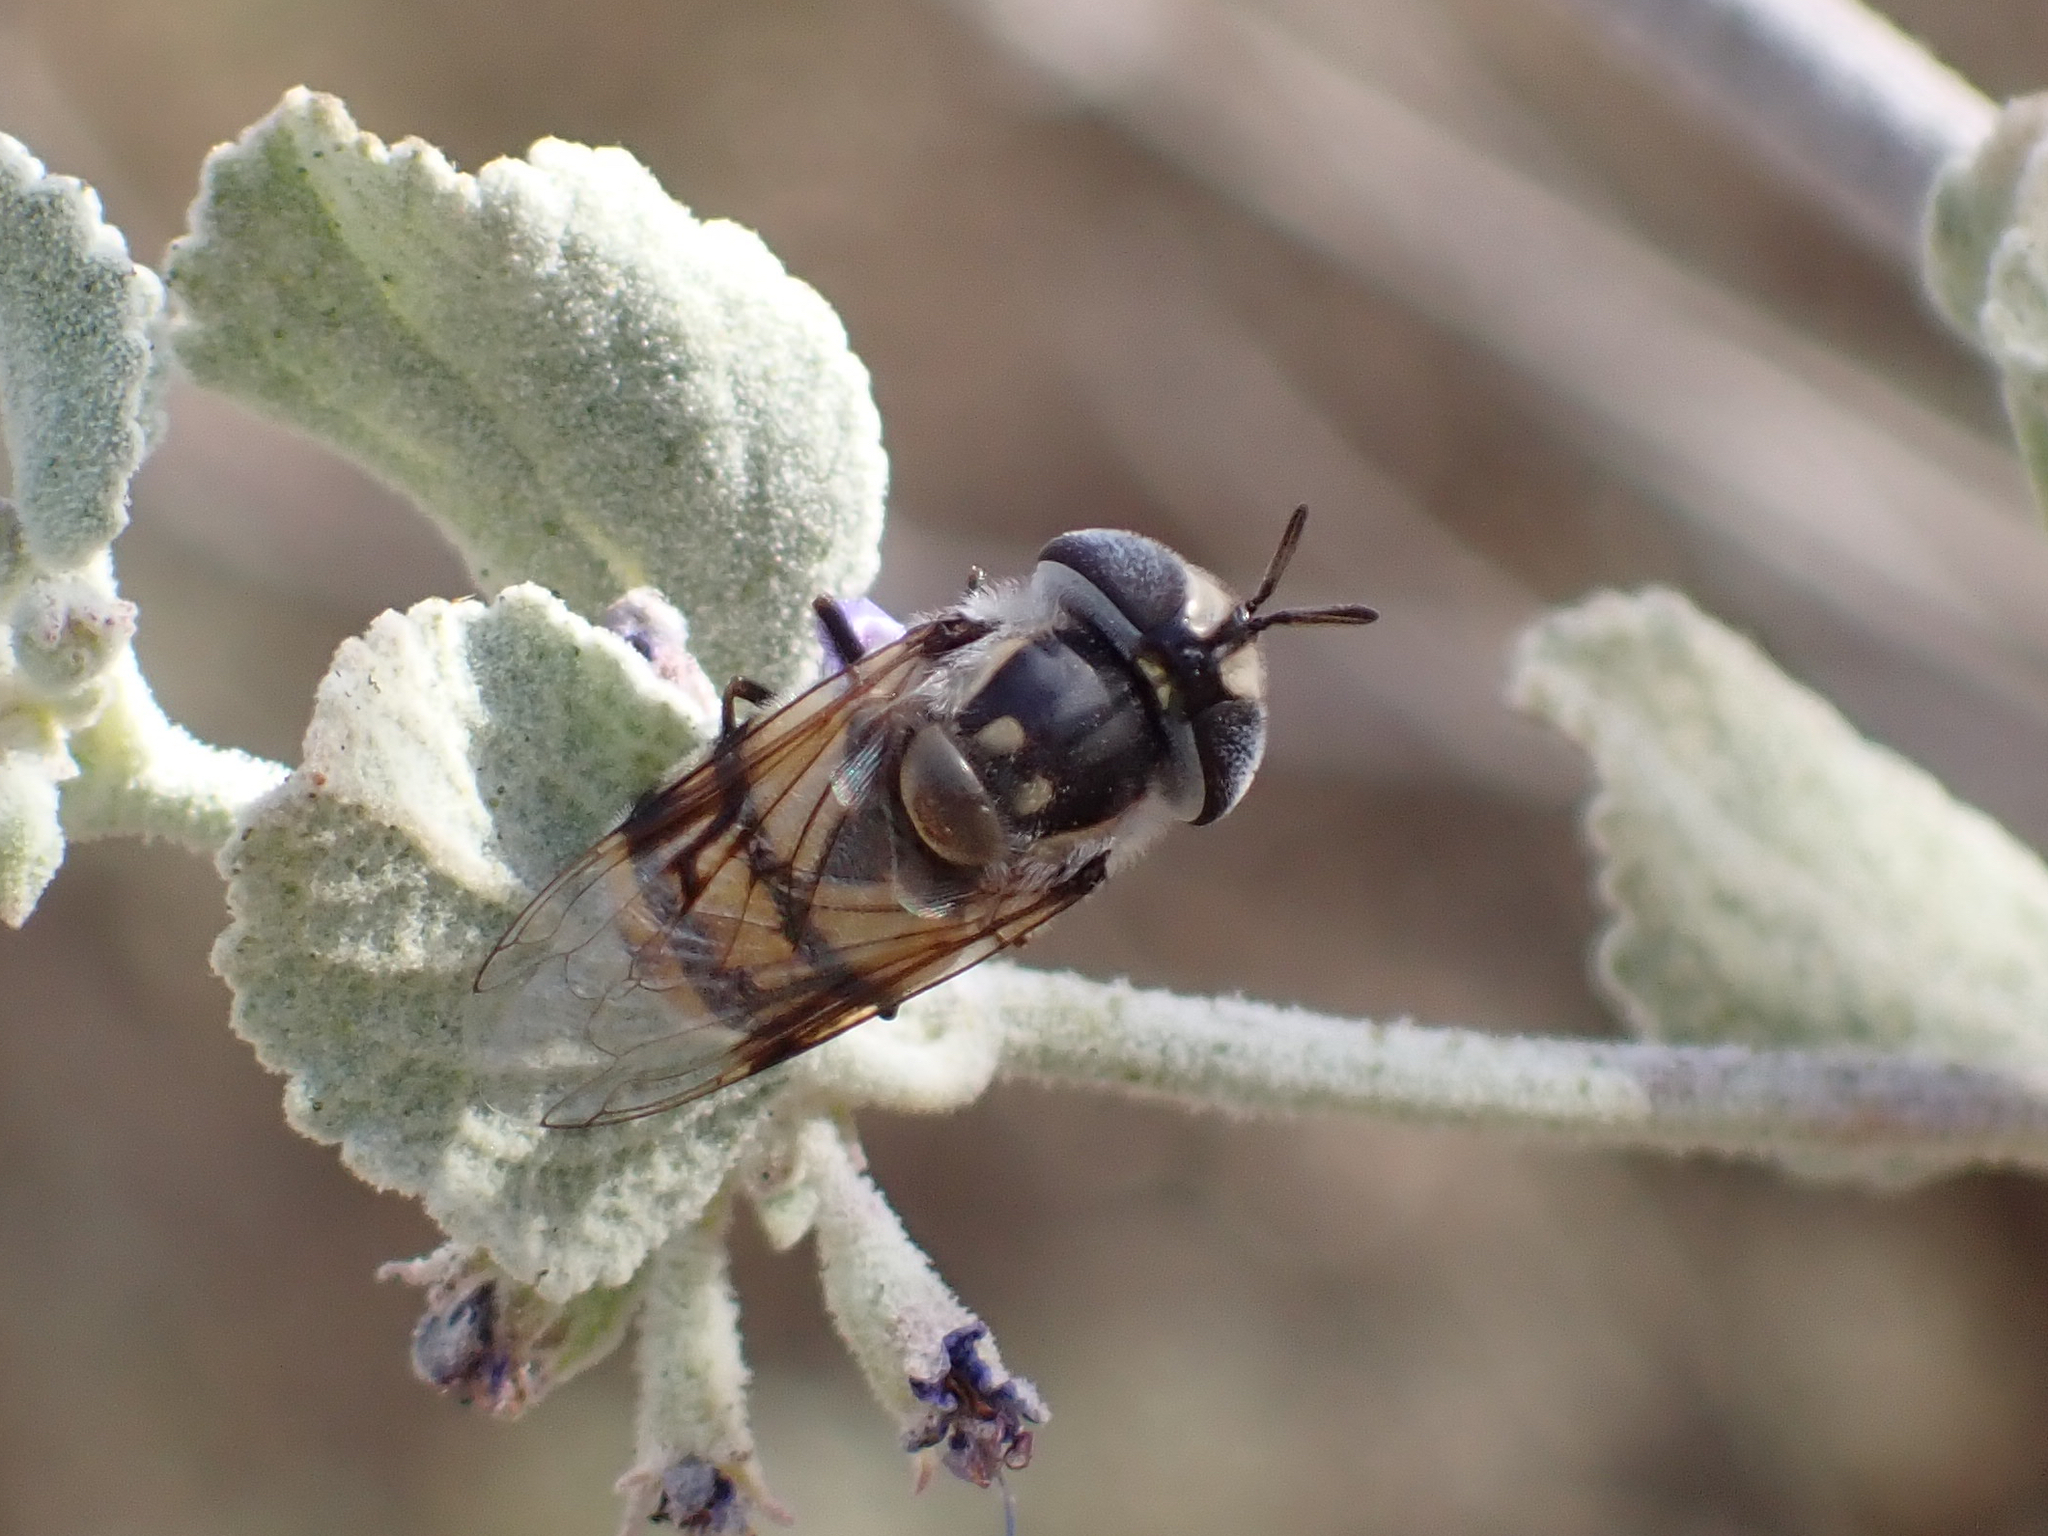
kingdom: Animalia
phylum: Arthropoda
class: Insecta
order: Diptera
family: Syrphidae
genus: Copestylum
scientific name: Copestylum fornax
